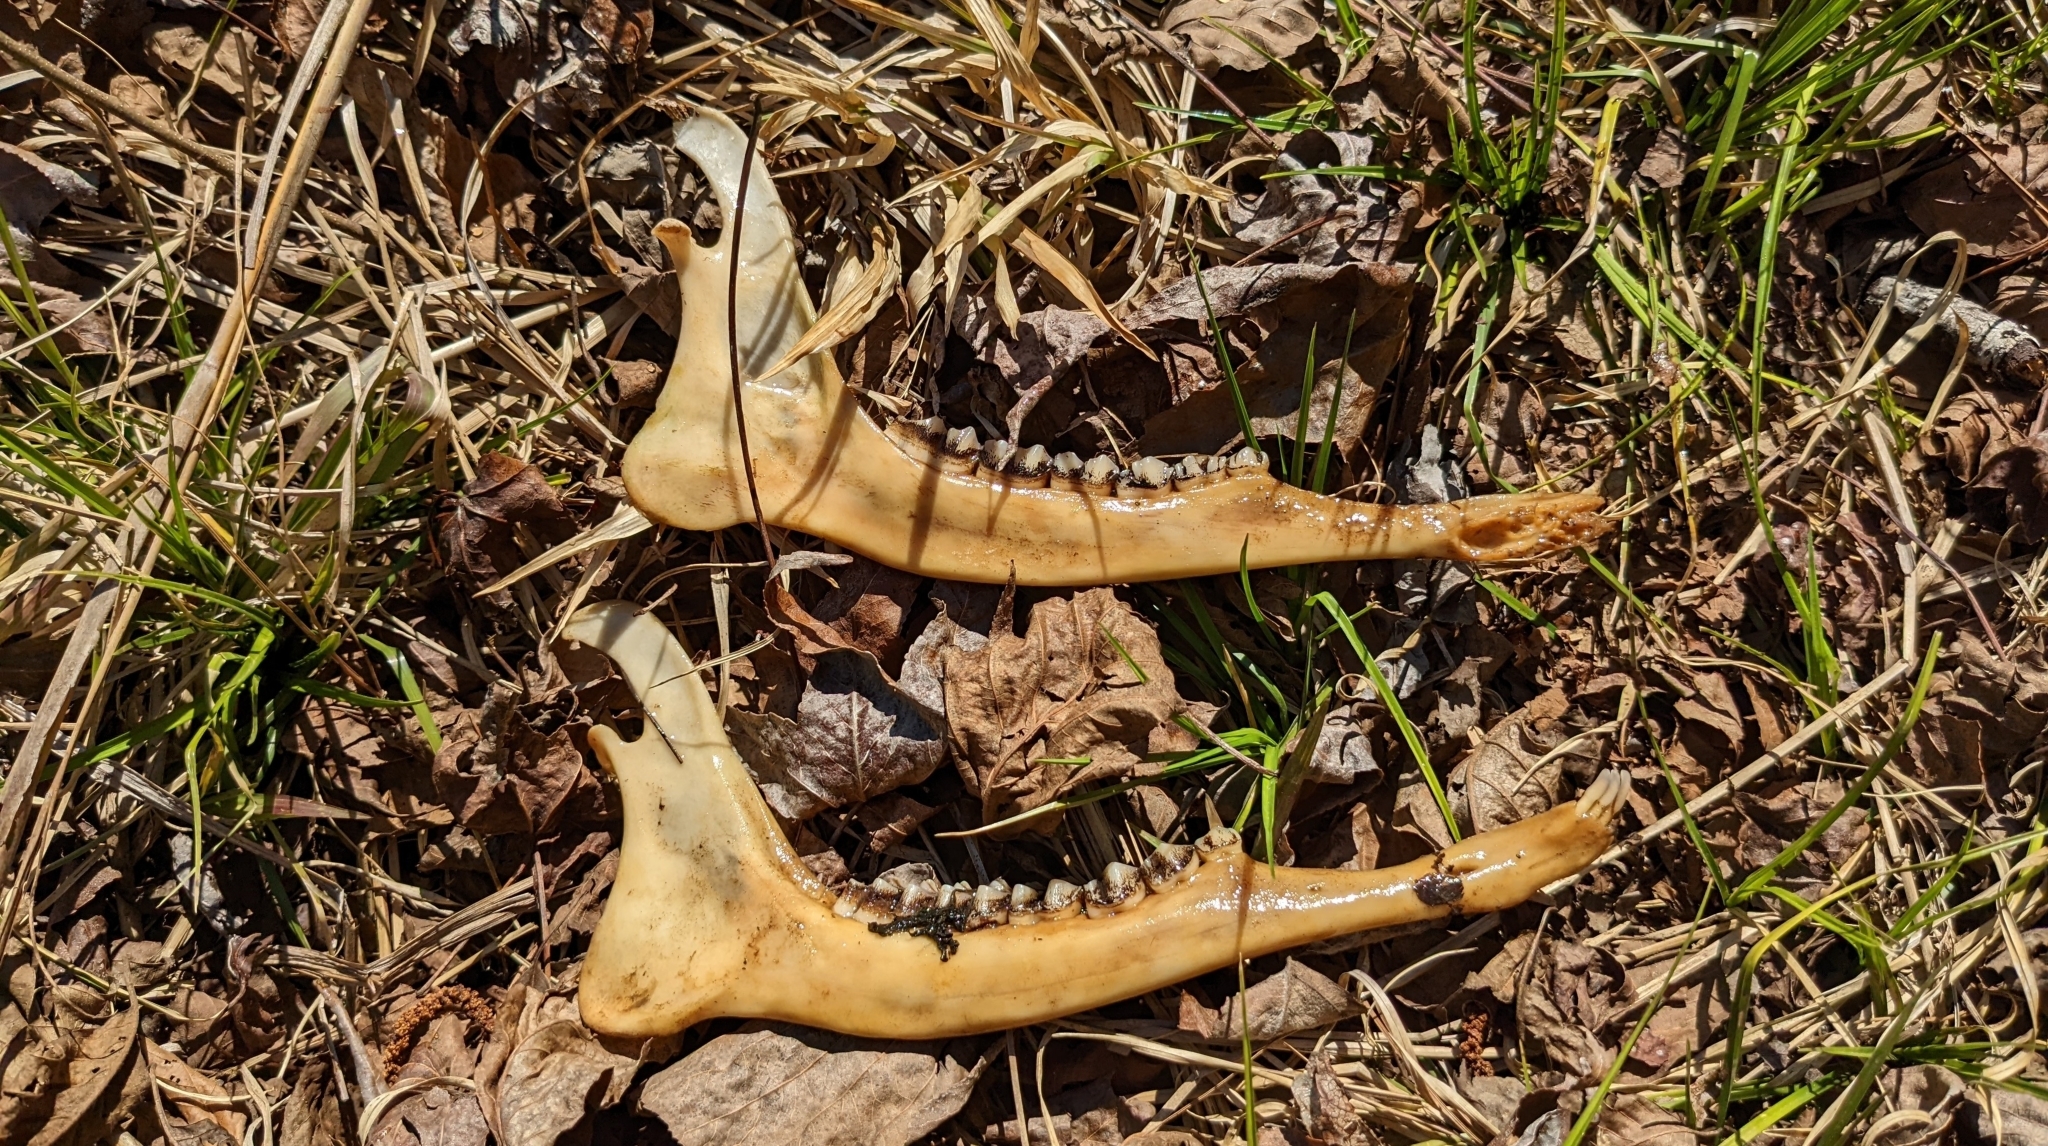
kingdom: Animalia
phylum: Chordata
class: Mammalia
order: Artiodactyla
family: Cervidae
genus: Odocoileus
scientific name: Odocoileus virginianus
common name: White-tailed deer
